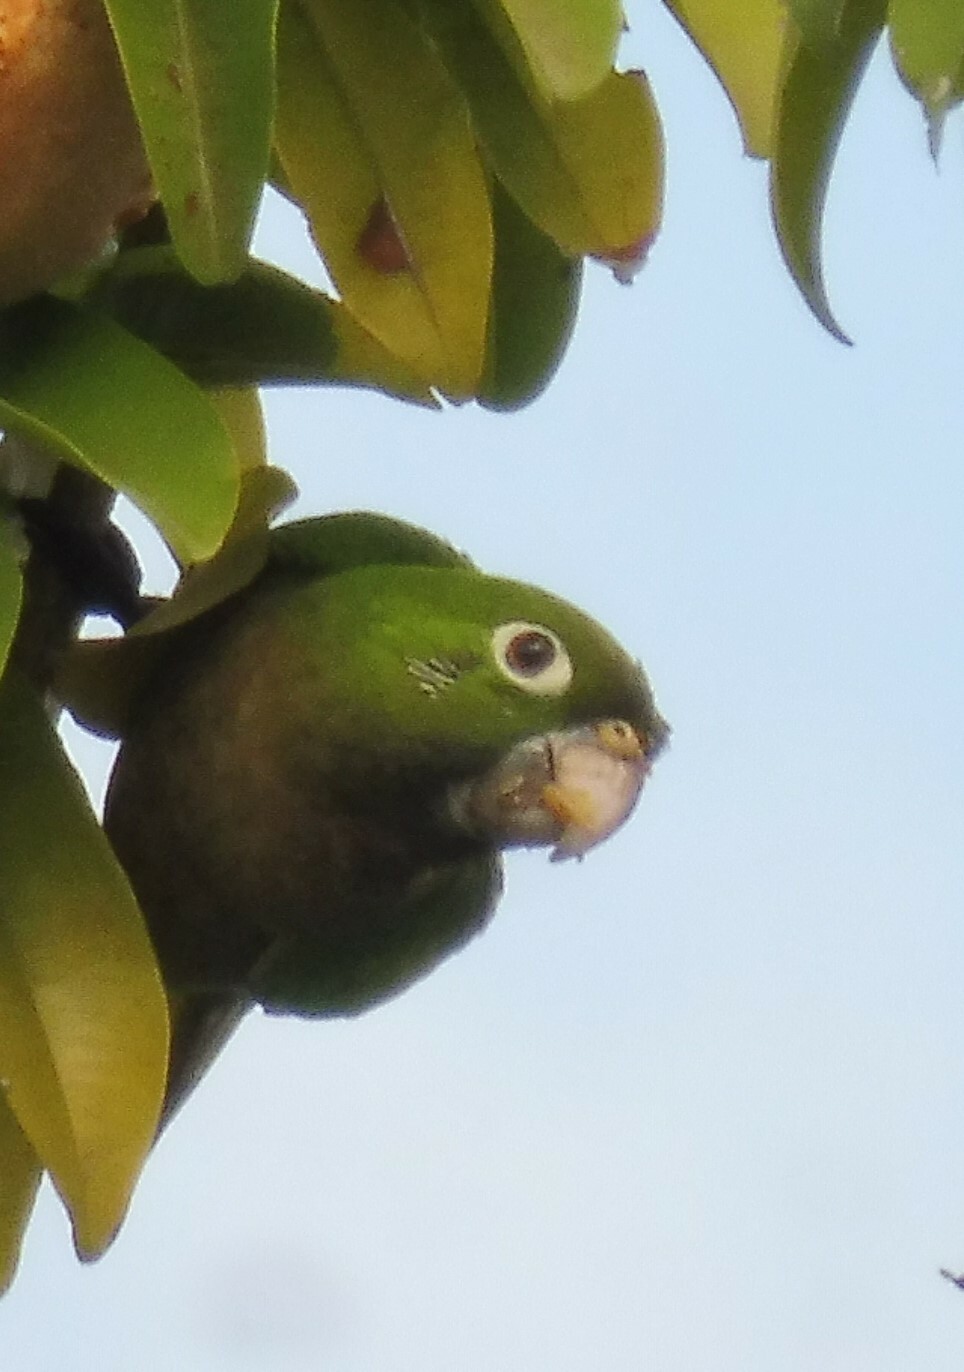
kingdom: Animalia
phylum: Chordata
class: Aves
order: Psittaciformes
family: Psittacidae
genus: Aratinga
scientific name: Aratinga nana
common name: Olive-throated parakeet
